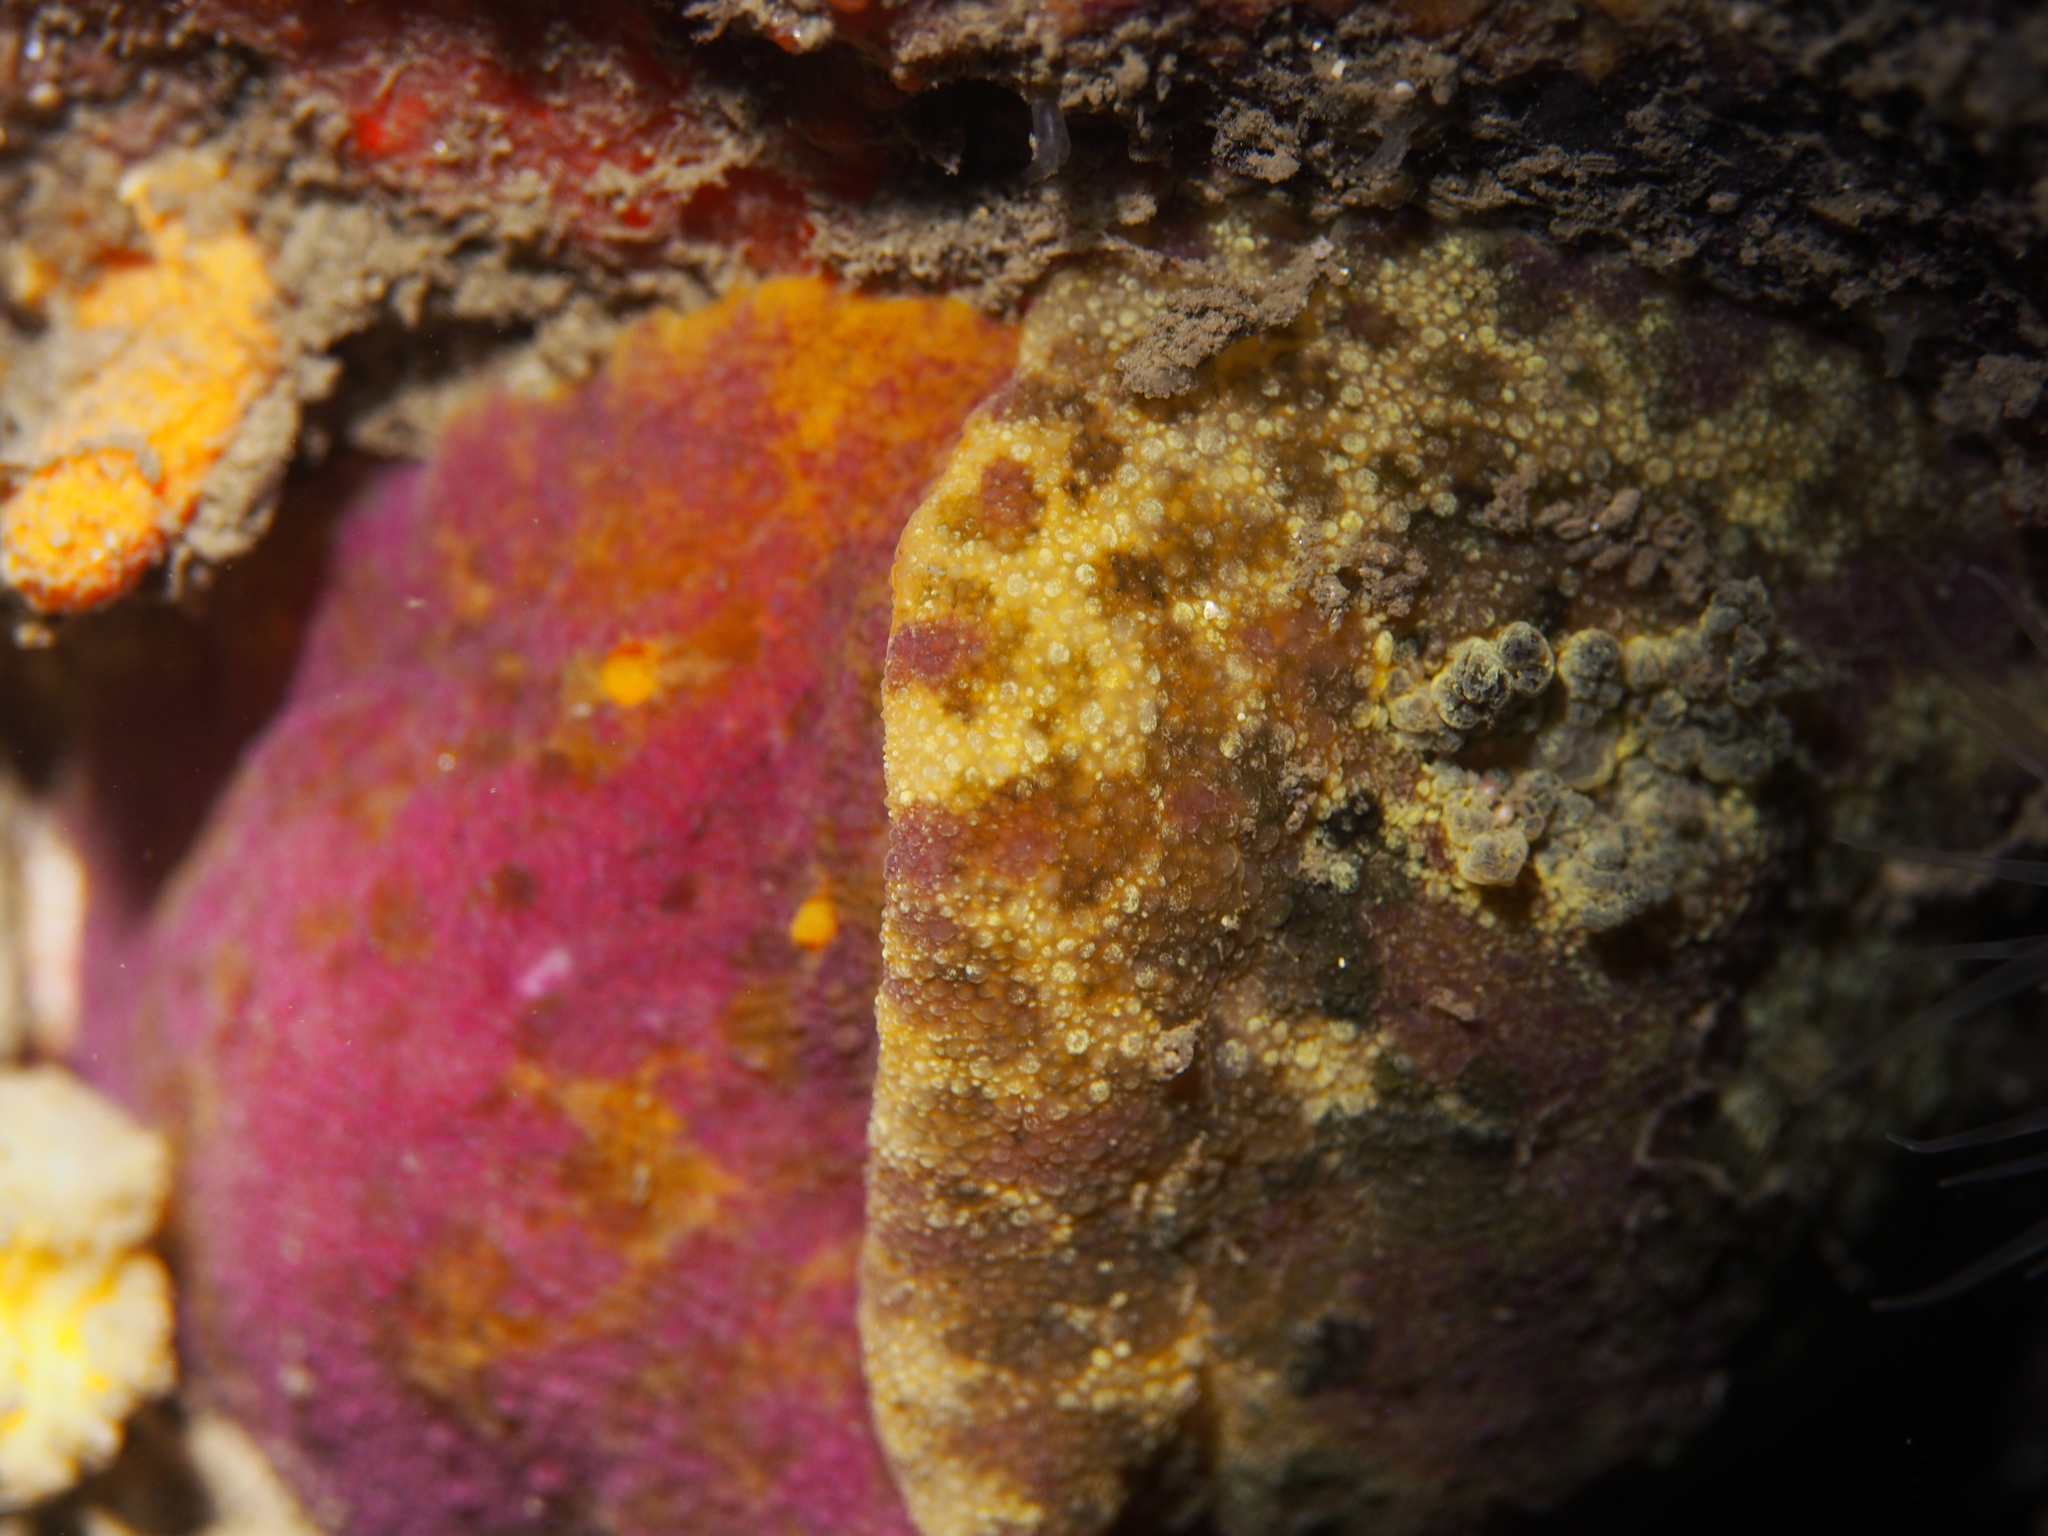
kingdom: Animalia
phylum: Mollusca
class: Gastropoda
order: Nudibranchia
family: Dorididae
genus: Doris
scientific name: Doris pseudoargus
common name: Sea lemon
